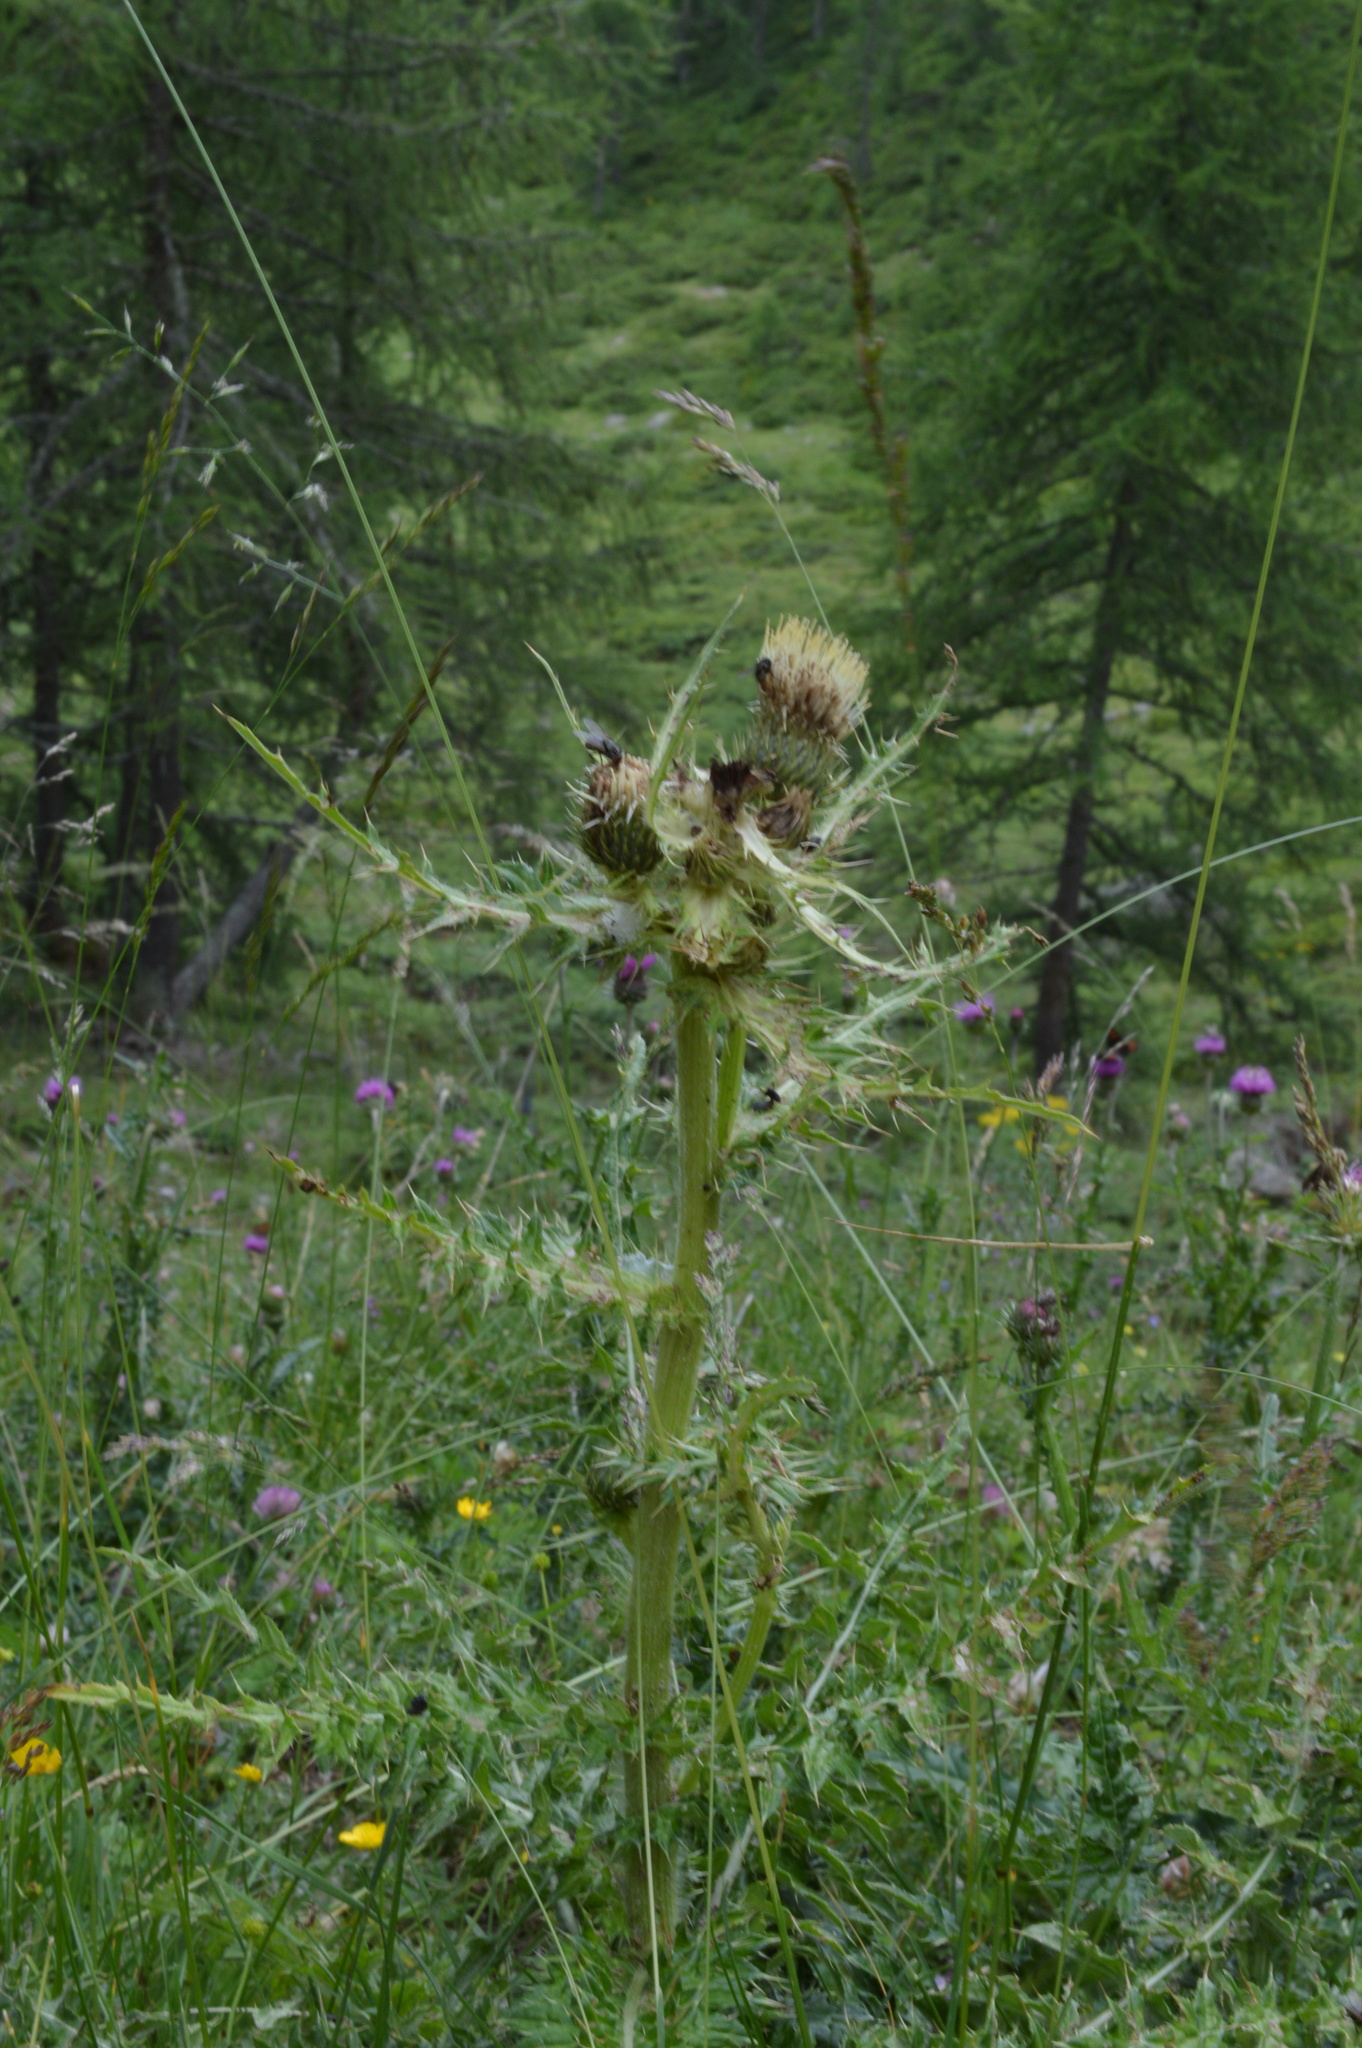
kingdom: Plantae
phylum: Tracheophyta
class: Magnoliopsida
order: Asterales
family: Asteraceae
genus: Cirsium
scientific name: Cirsium spinosissimum
